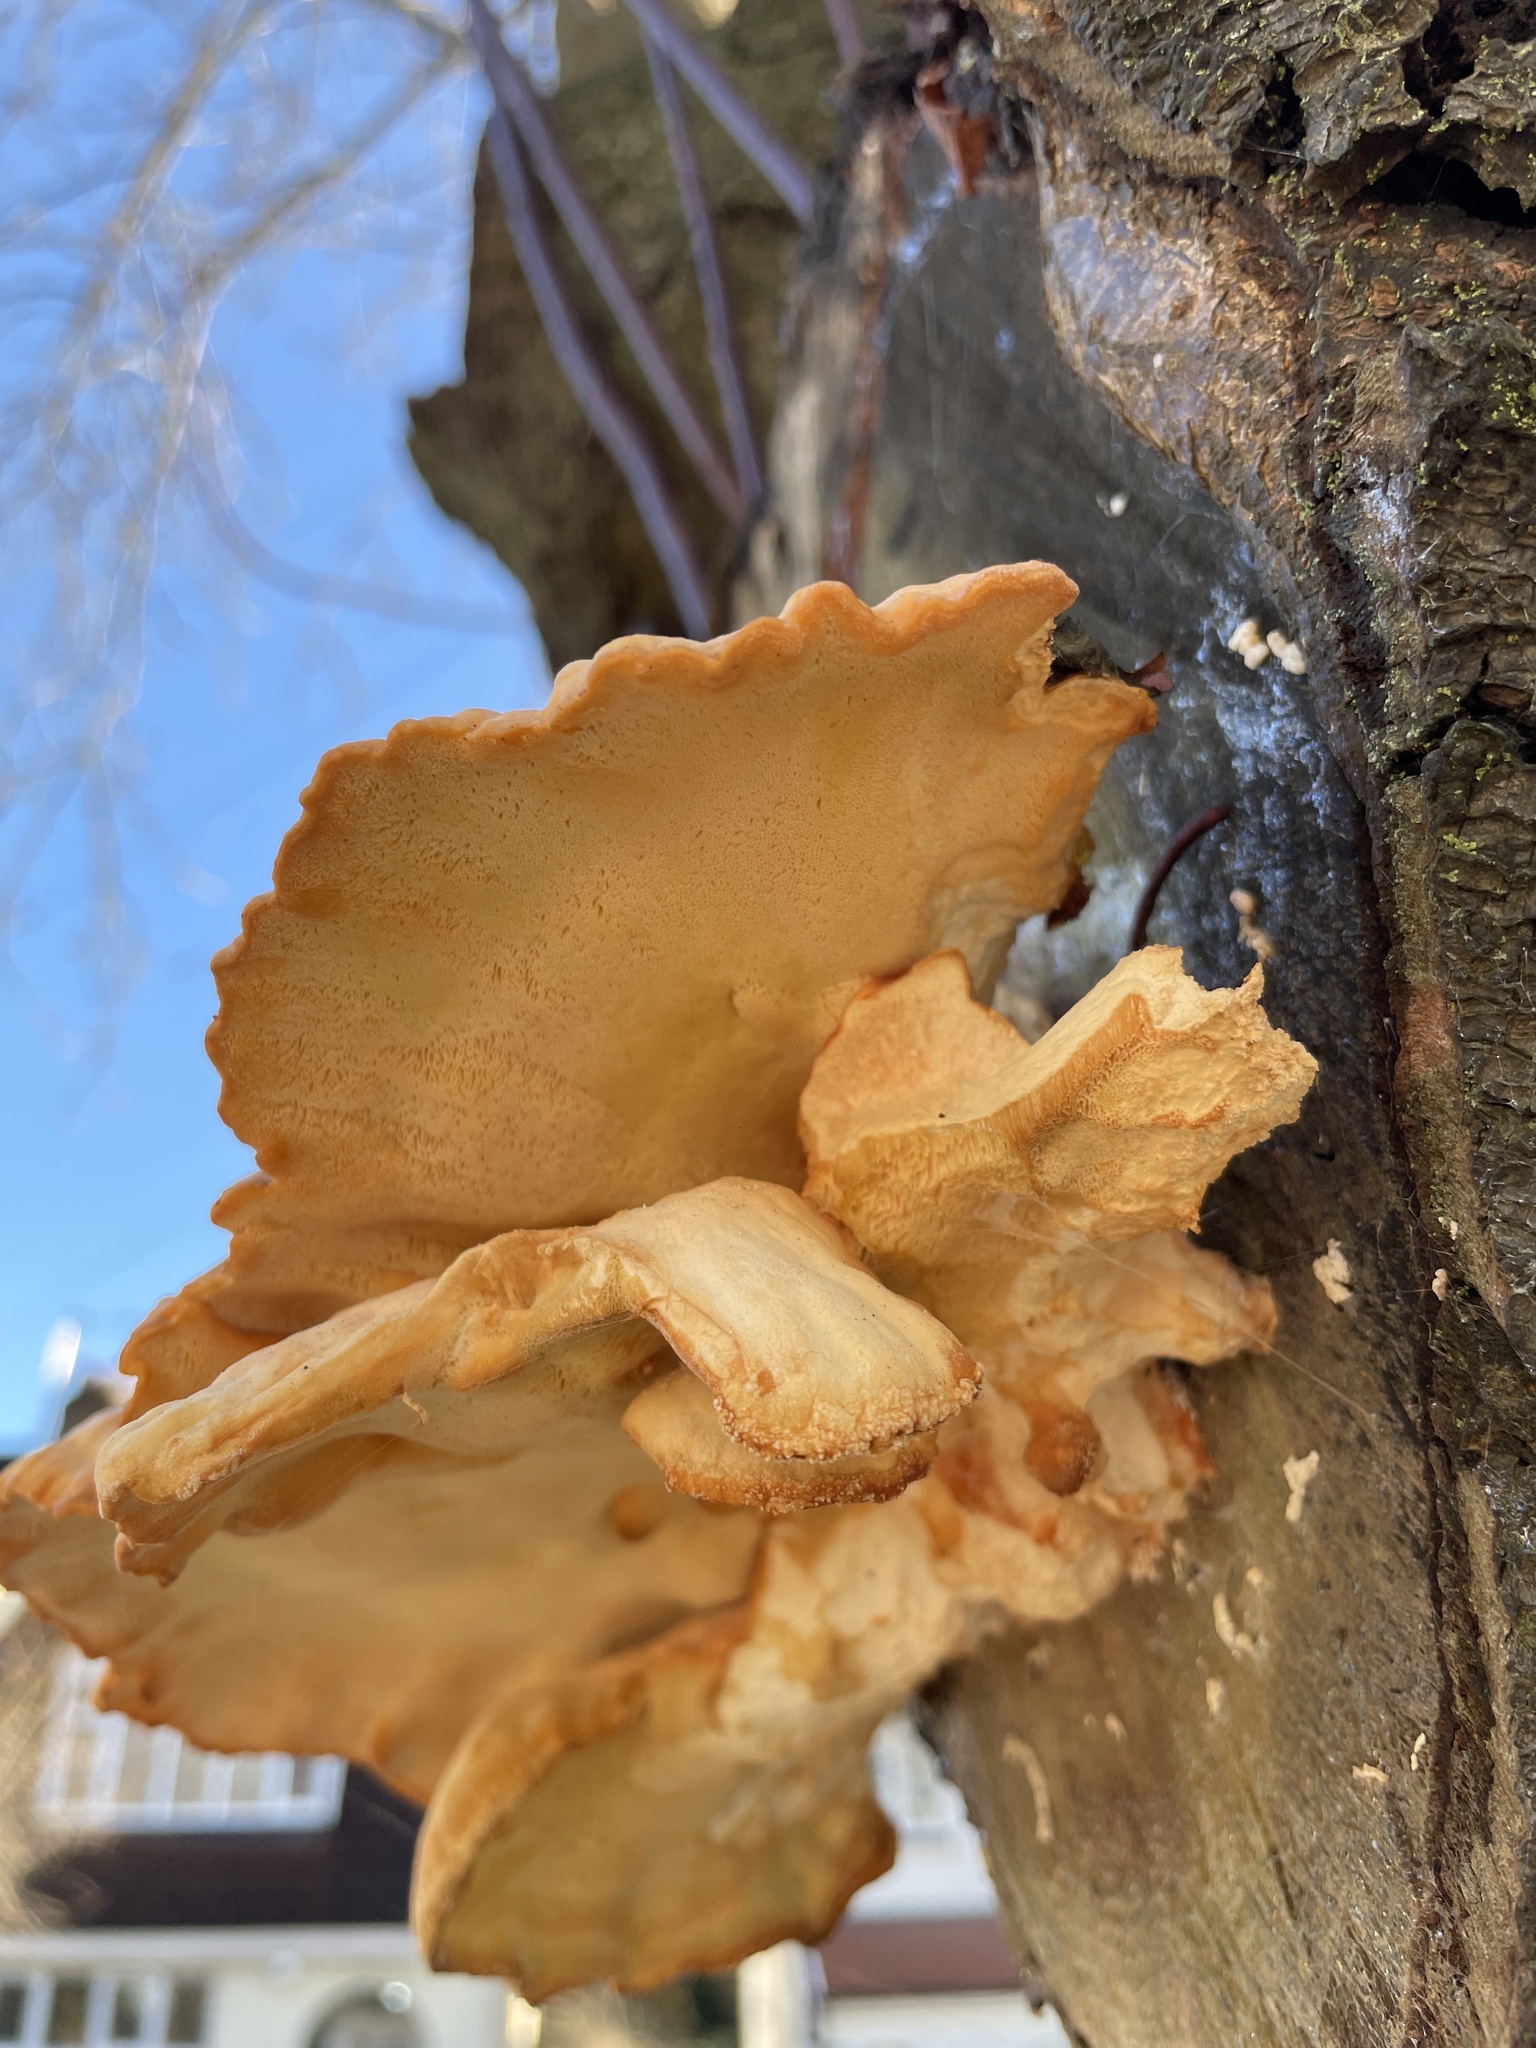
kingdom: Fungi
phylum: Basidiomycota
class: Agaricomycetes
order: Polyporales
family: Laetiporaceae
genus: Laetiporus
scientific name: Laetiporus sulphureus
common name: Chicken of the woods
